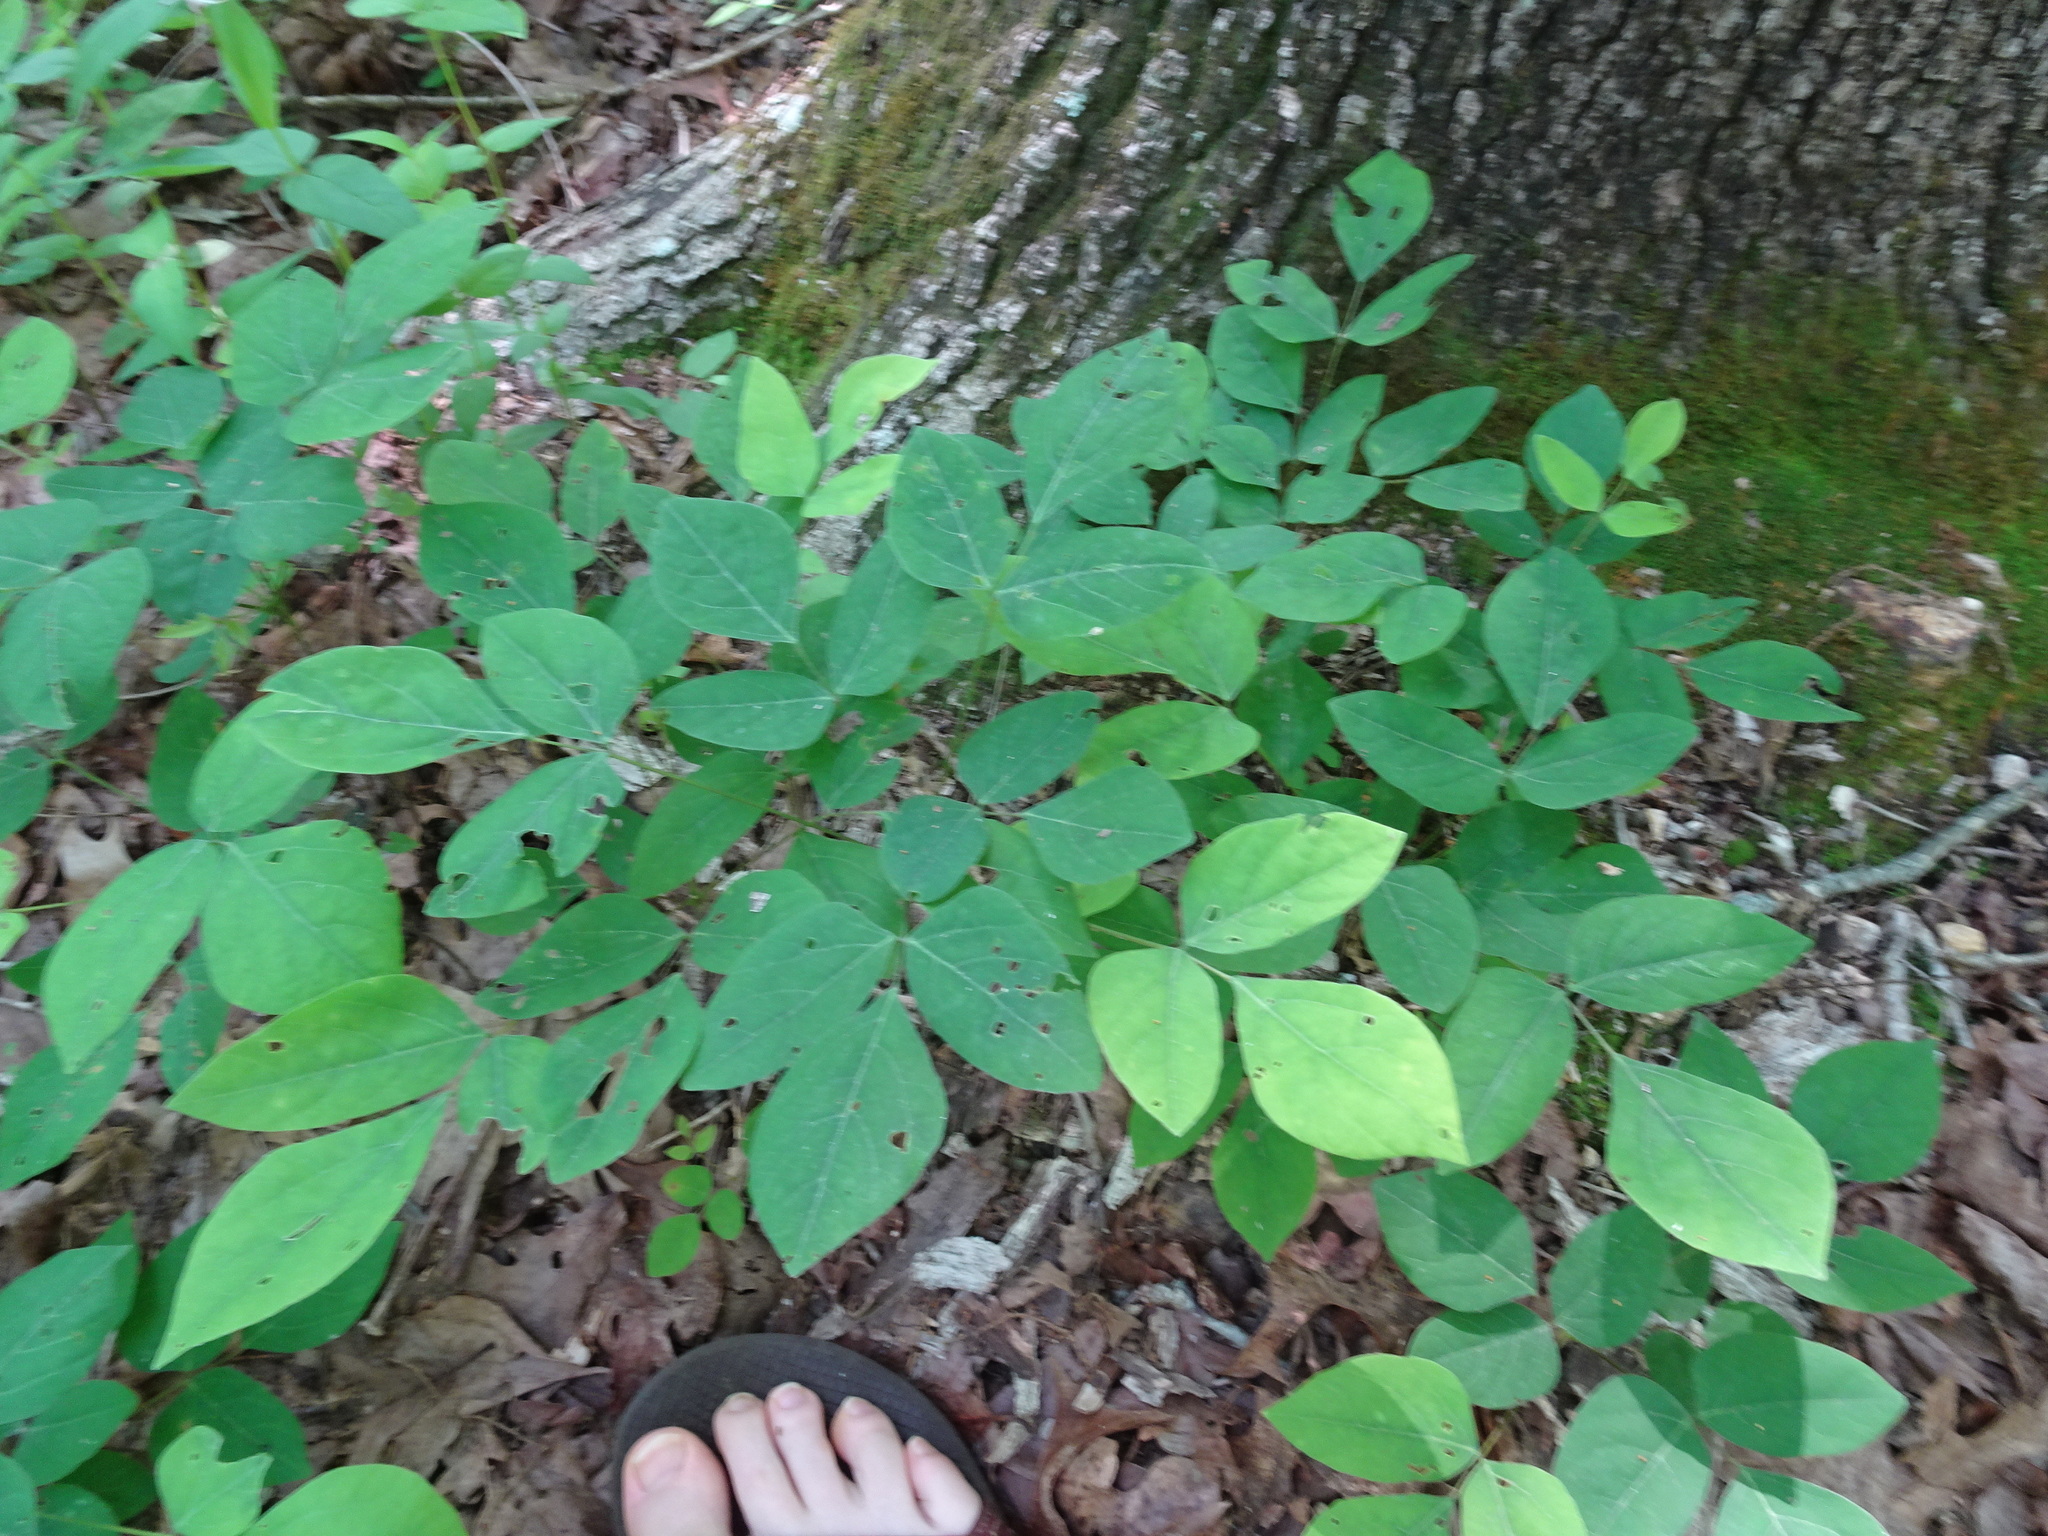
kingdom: Plantae
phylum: Tracheophyta
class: Magnoliopsida
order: Fabales
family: Fabaceae
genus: Hylodesmum
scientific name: Hylodesmum nudiflorum
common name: Bare-stemmed tick-trefoil
